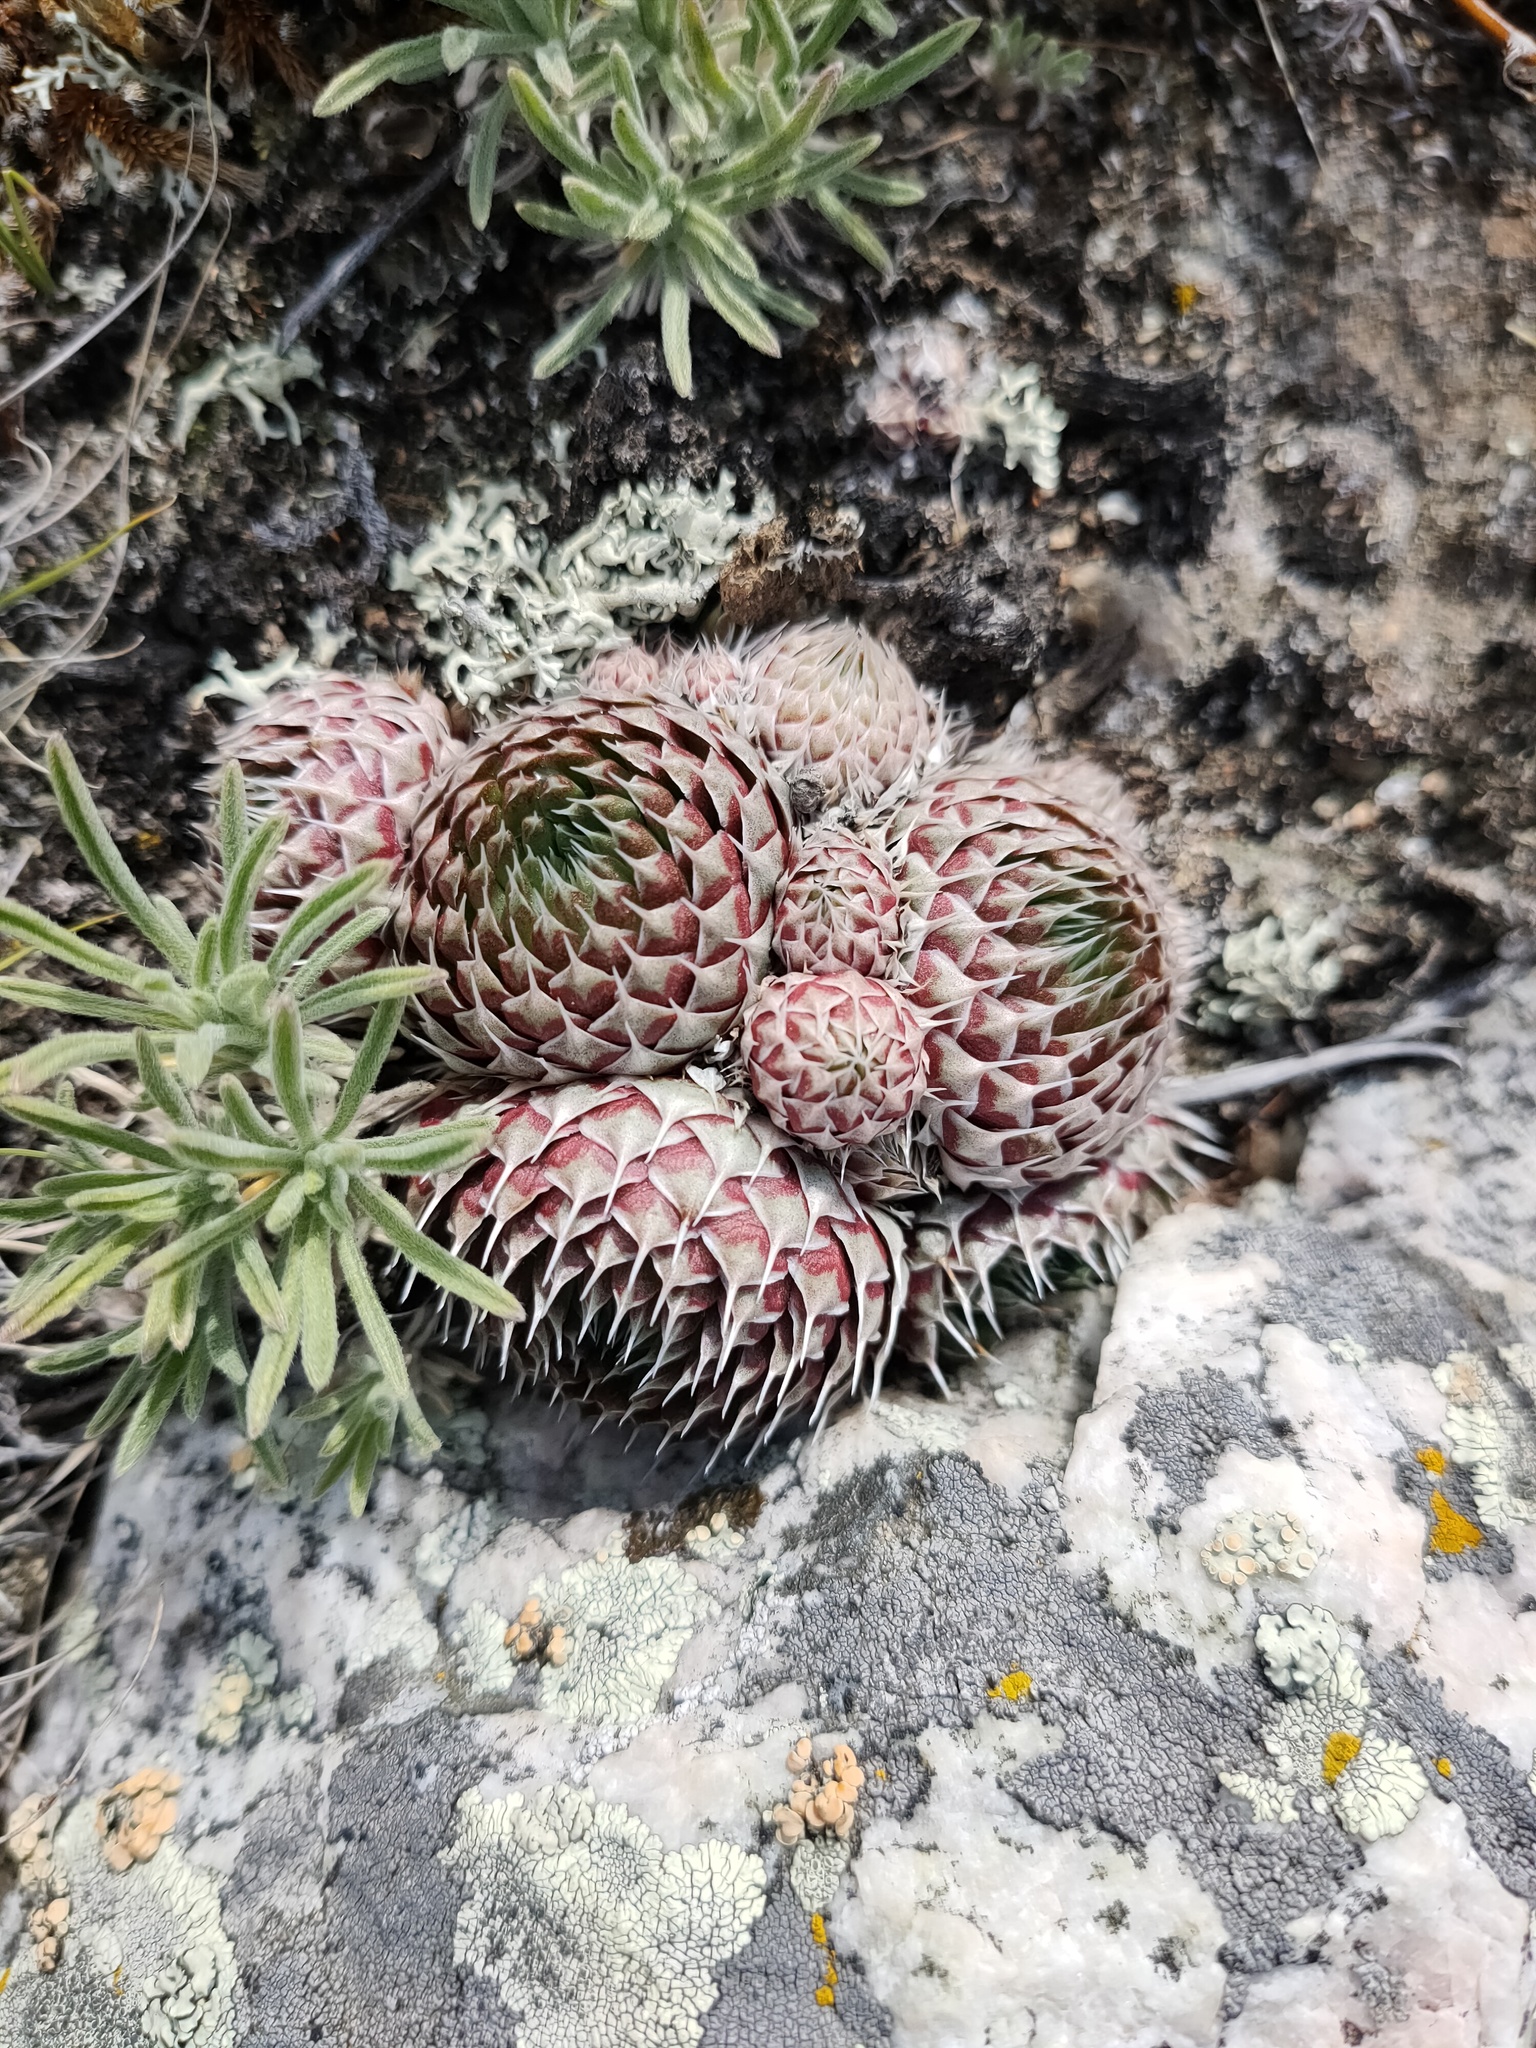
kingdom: Plantae
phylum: Tracheophyta
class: Magnoliopsida
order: Saxifragales
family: Crassulaceae
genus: Orostachys
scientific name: Orostachys spinosa
